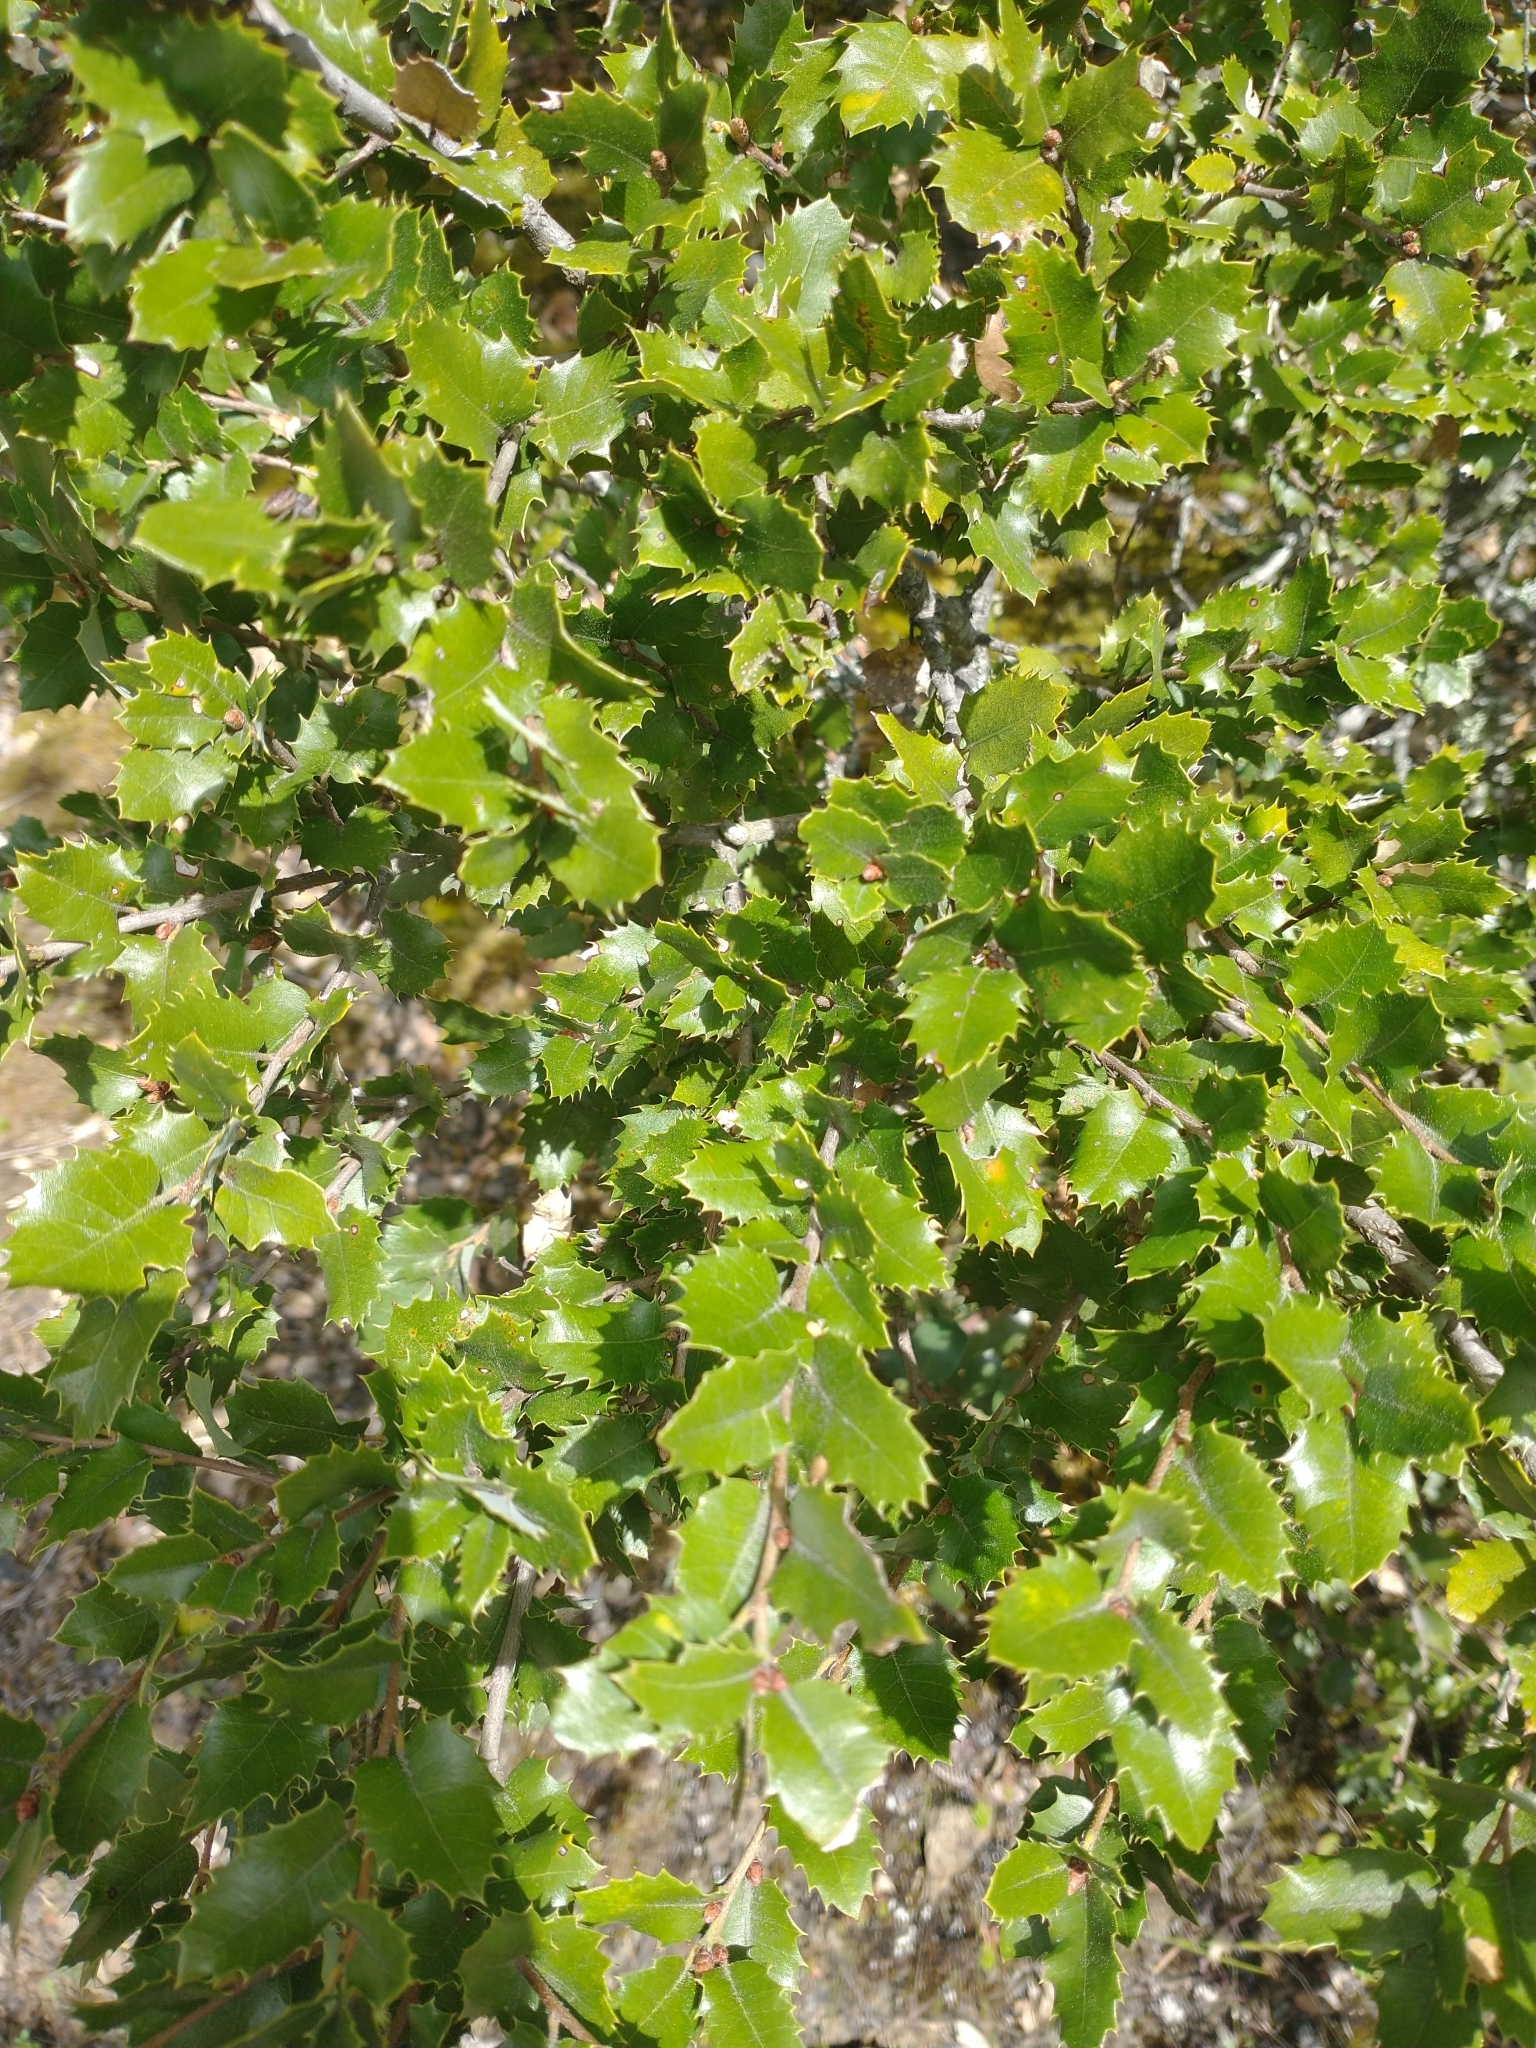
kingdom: Plantae
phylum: Tracheophyta
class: Magnoliopsida
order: Fagales
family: Fagaceae
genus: Quercus
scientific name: Quercus chrysolepis
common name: Canyon live oak
